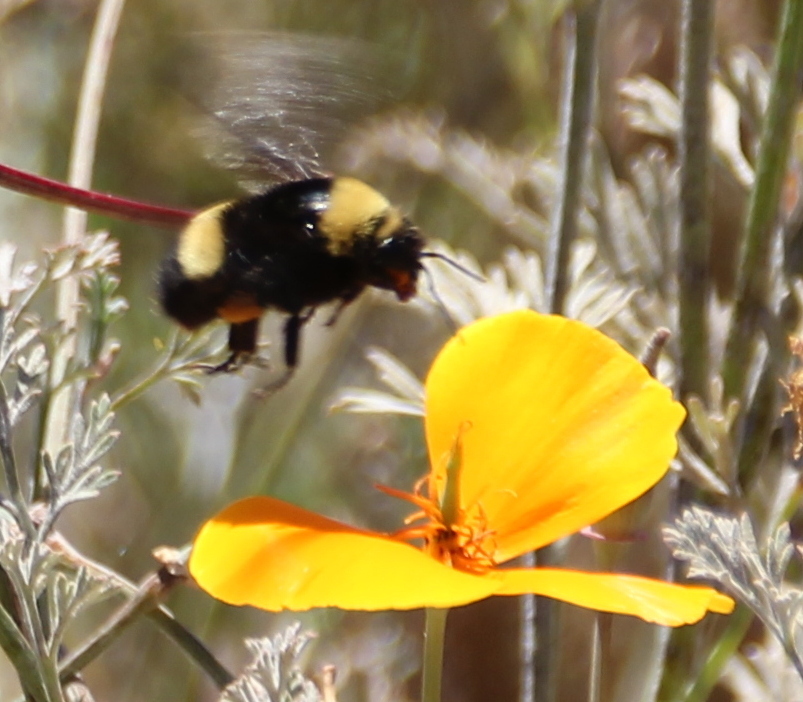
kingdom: Animalia
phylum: Arthropoda
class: Insecta
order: Hymenoptera
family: Apidae
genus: Bombus
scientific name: Bombus crotchii
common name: Crotch bumble bee
